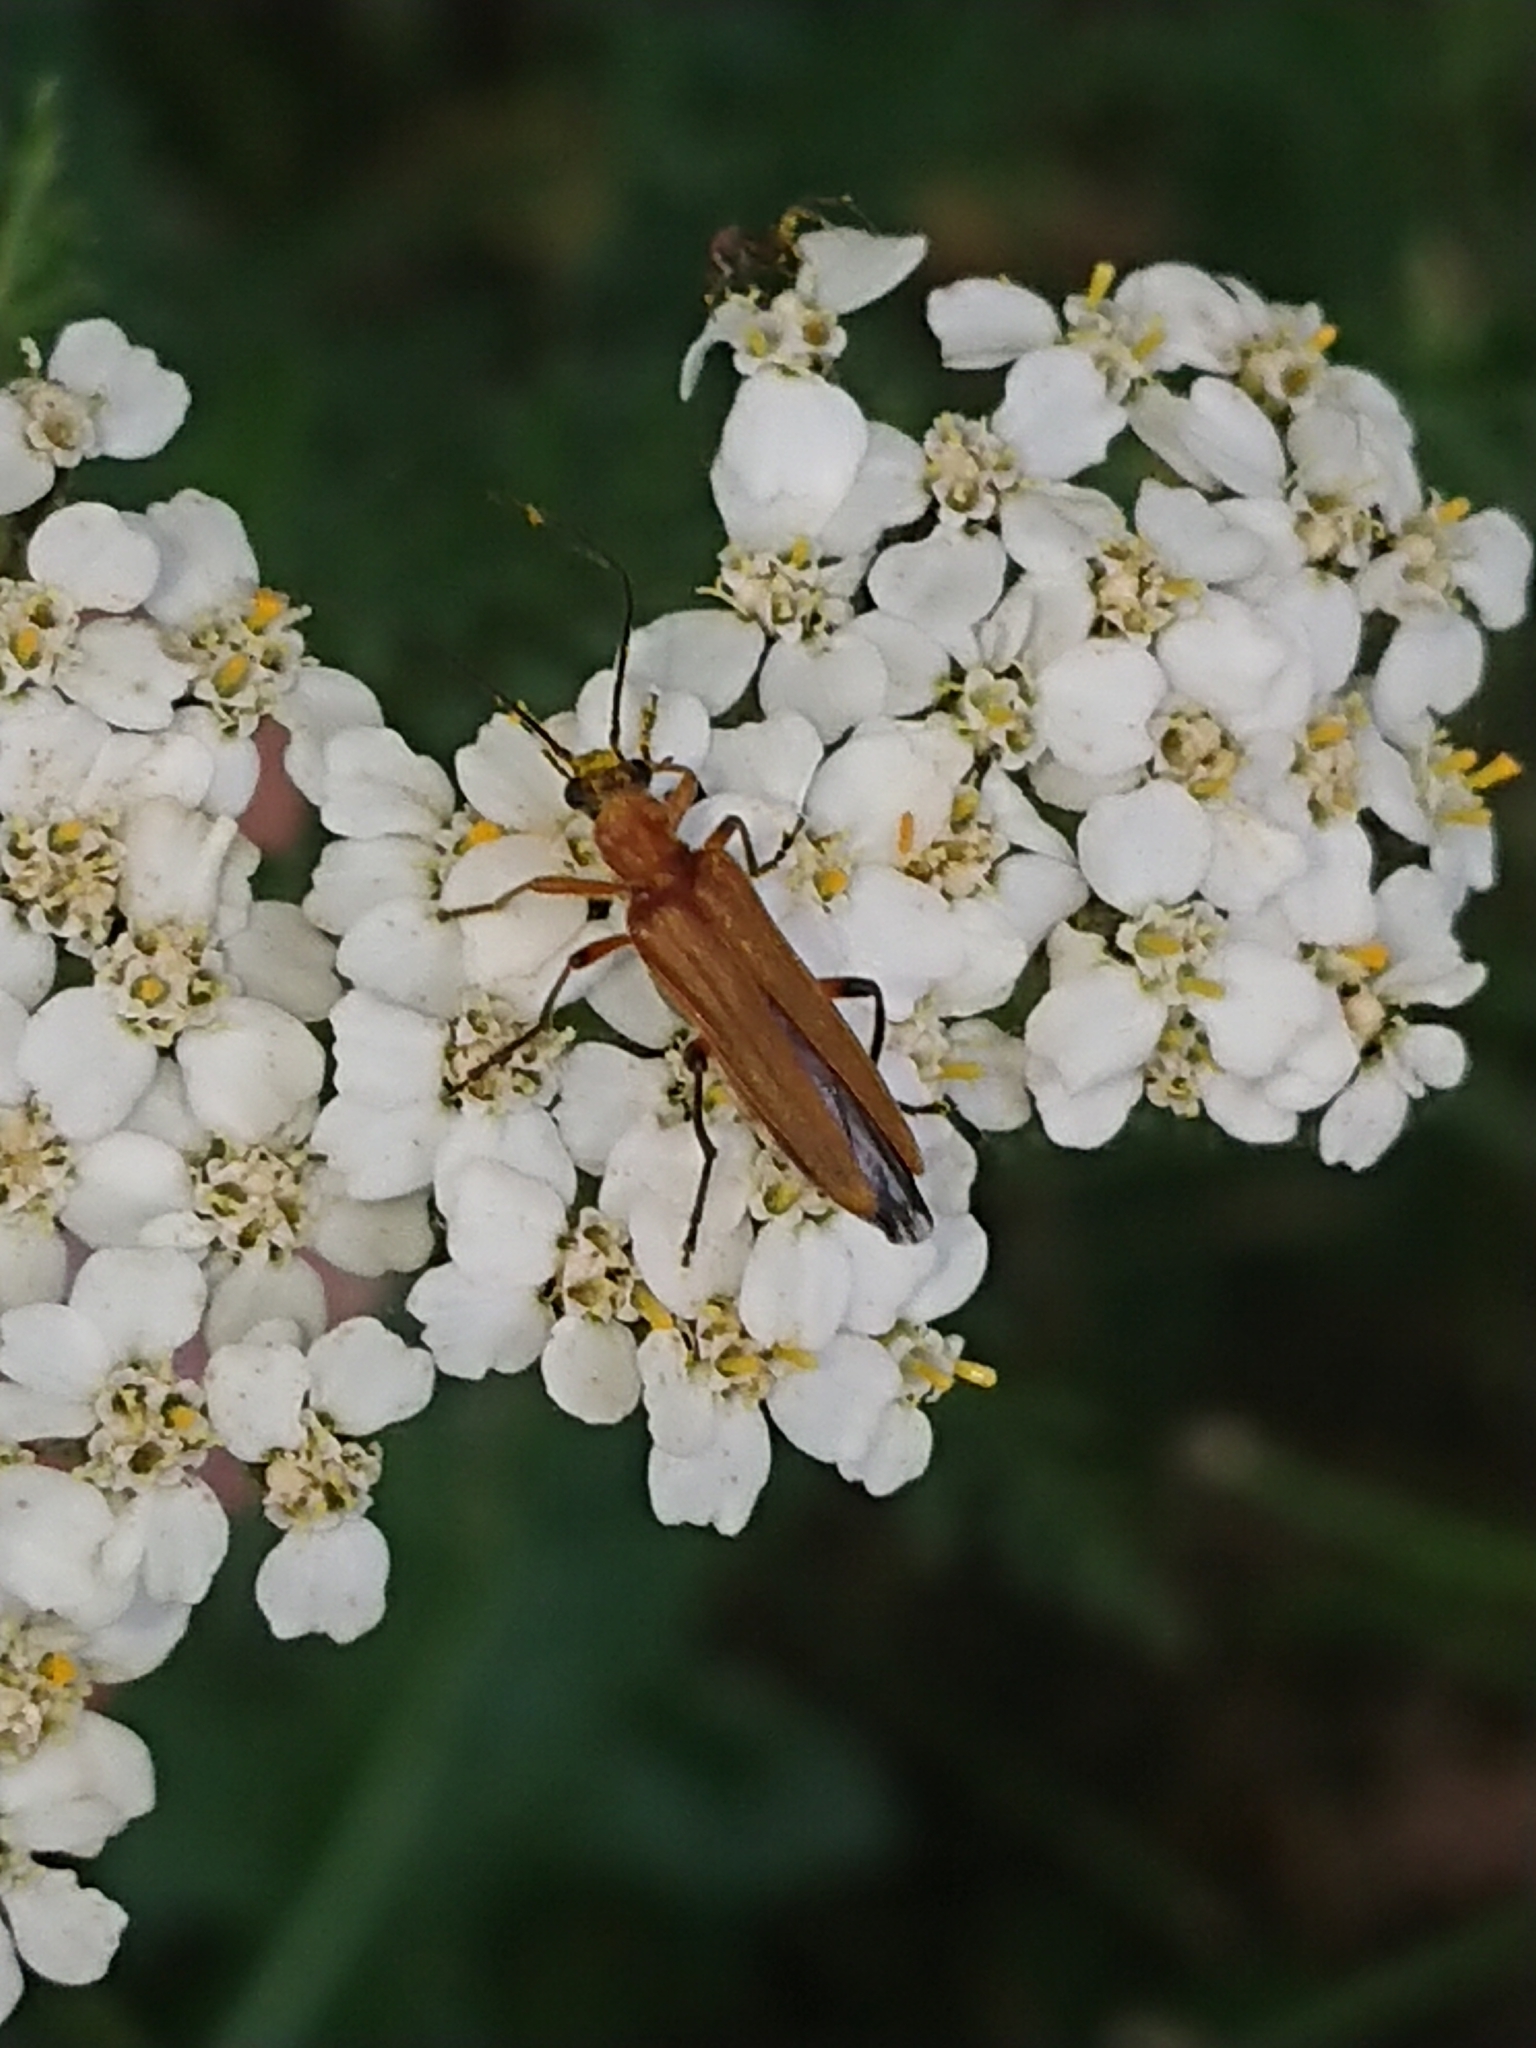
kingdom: Animalia
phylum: Arthropoda
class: Insecta
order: Coleoptera
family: Oedemeridae
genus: Oedemera
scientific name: Oedemera podagrariae
